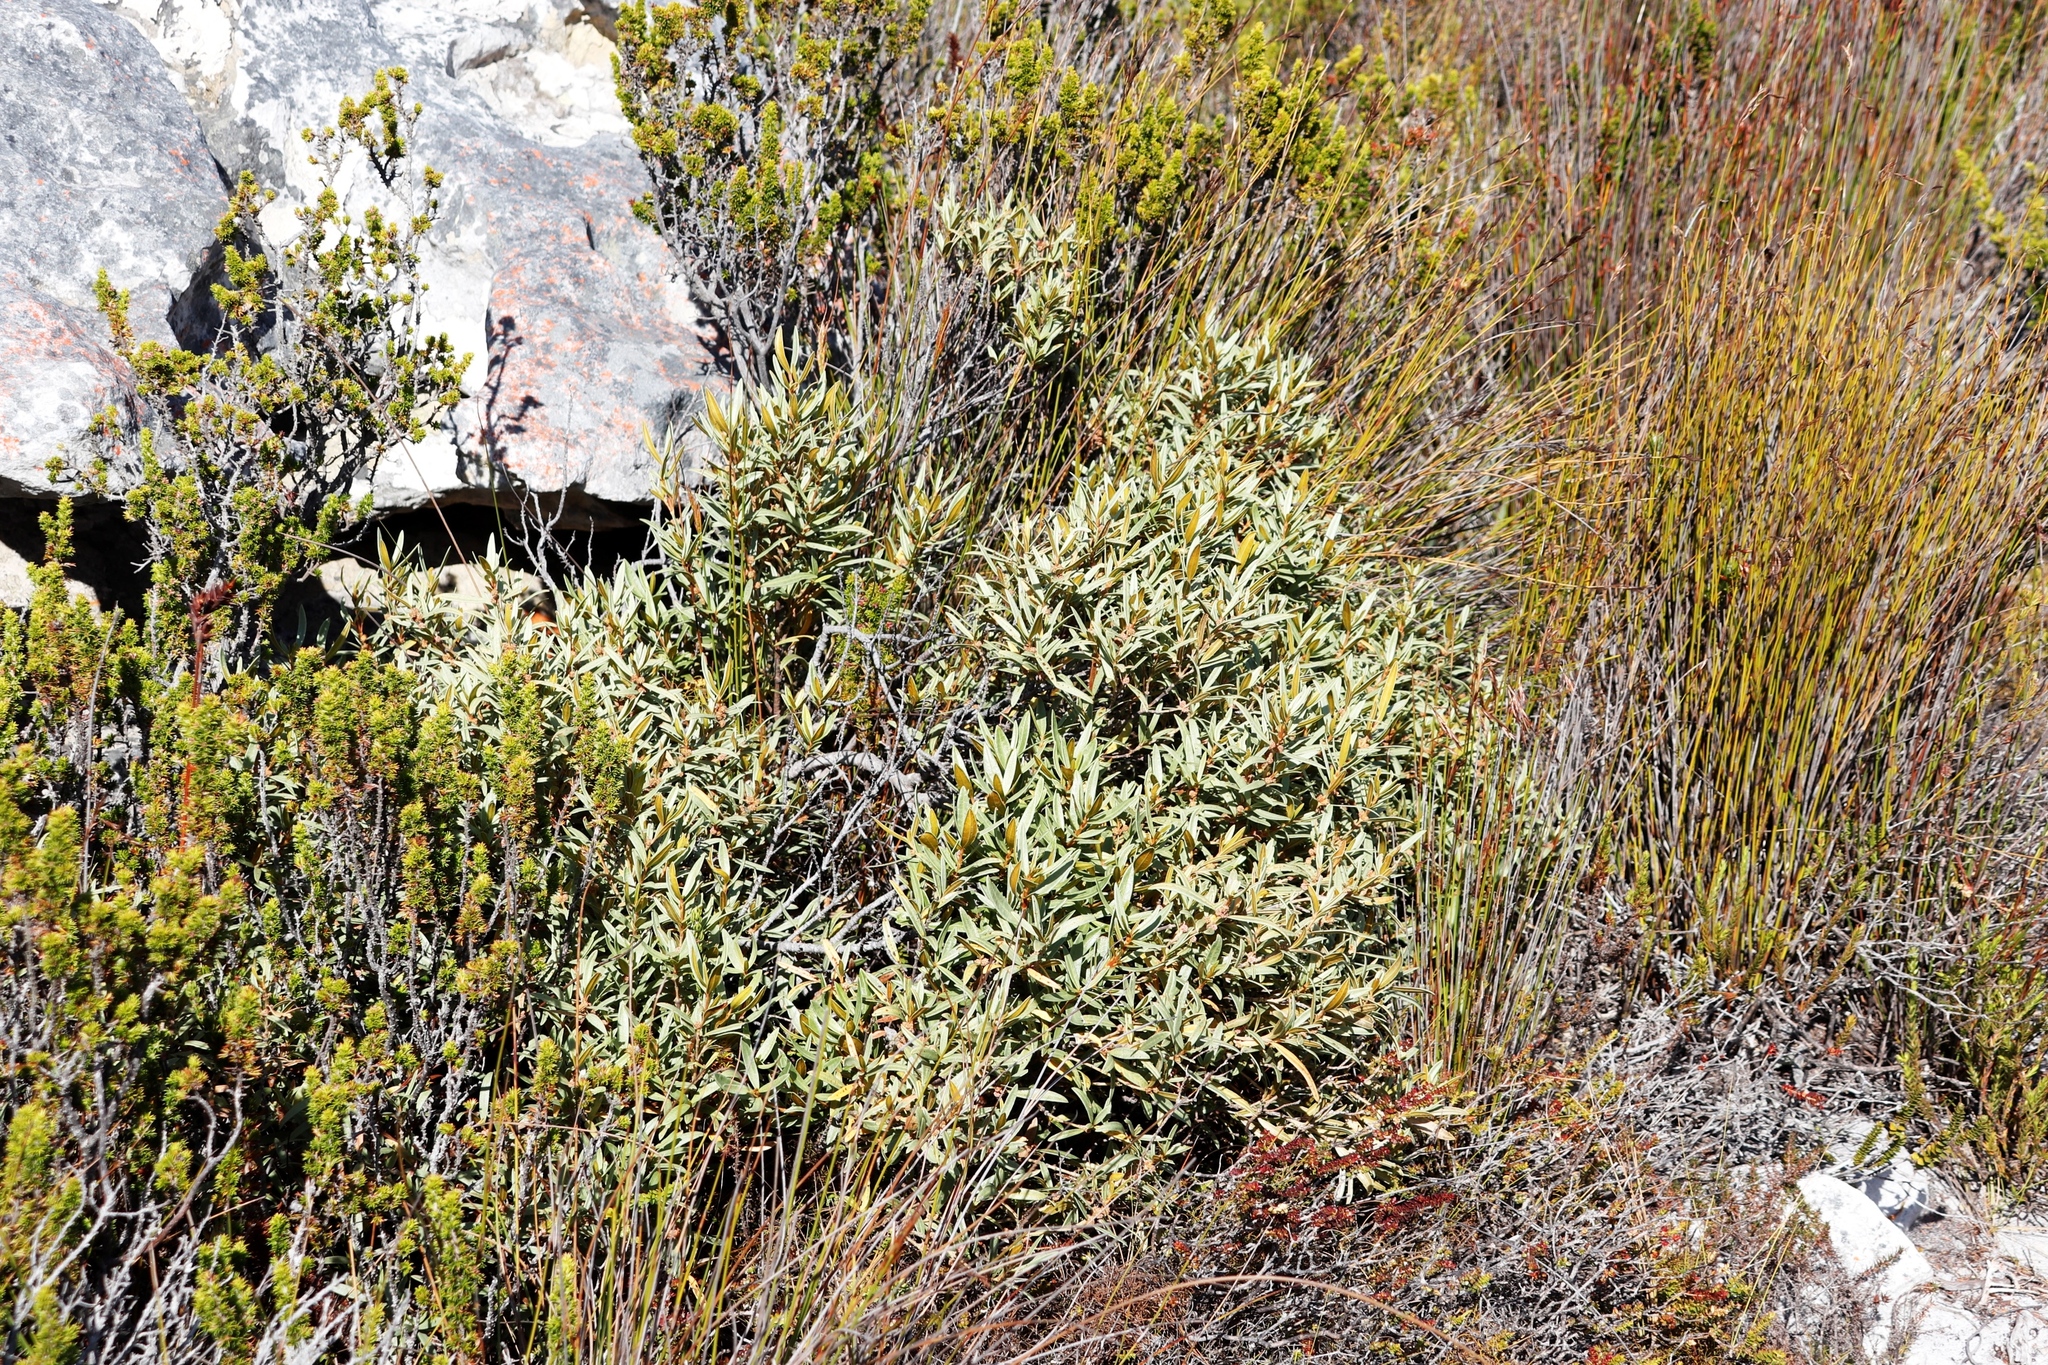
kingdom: Plantae
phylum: Tracheophyta
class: Magnoliopsida
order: Cornales
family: Grubbiaceae
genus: Grubbia
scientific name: Grubbia tomentosa
